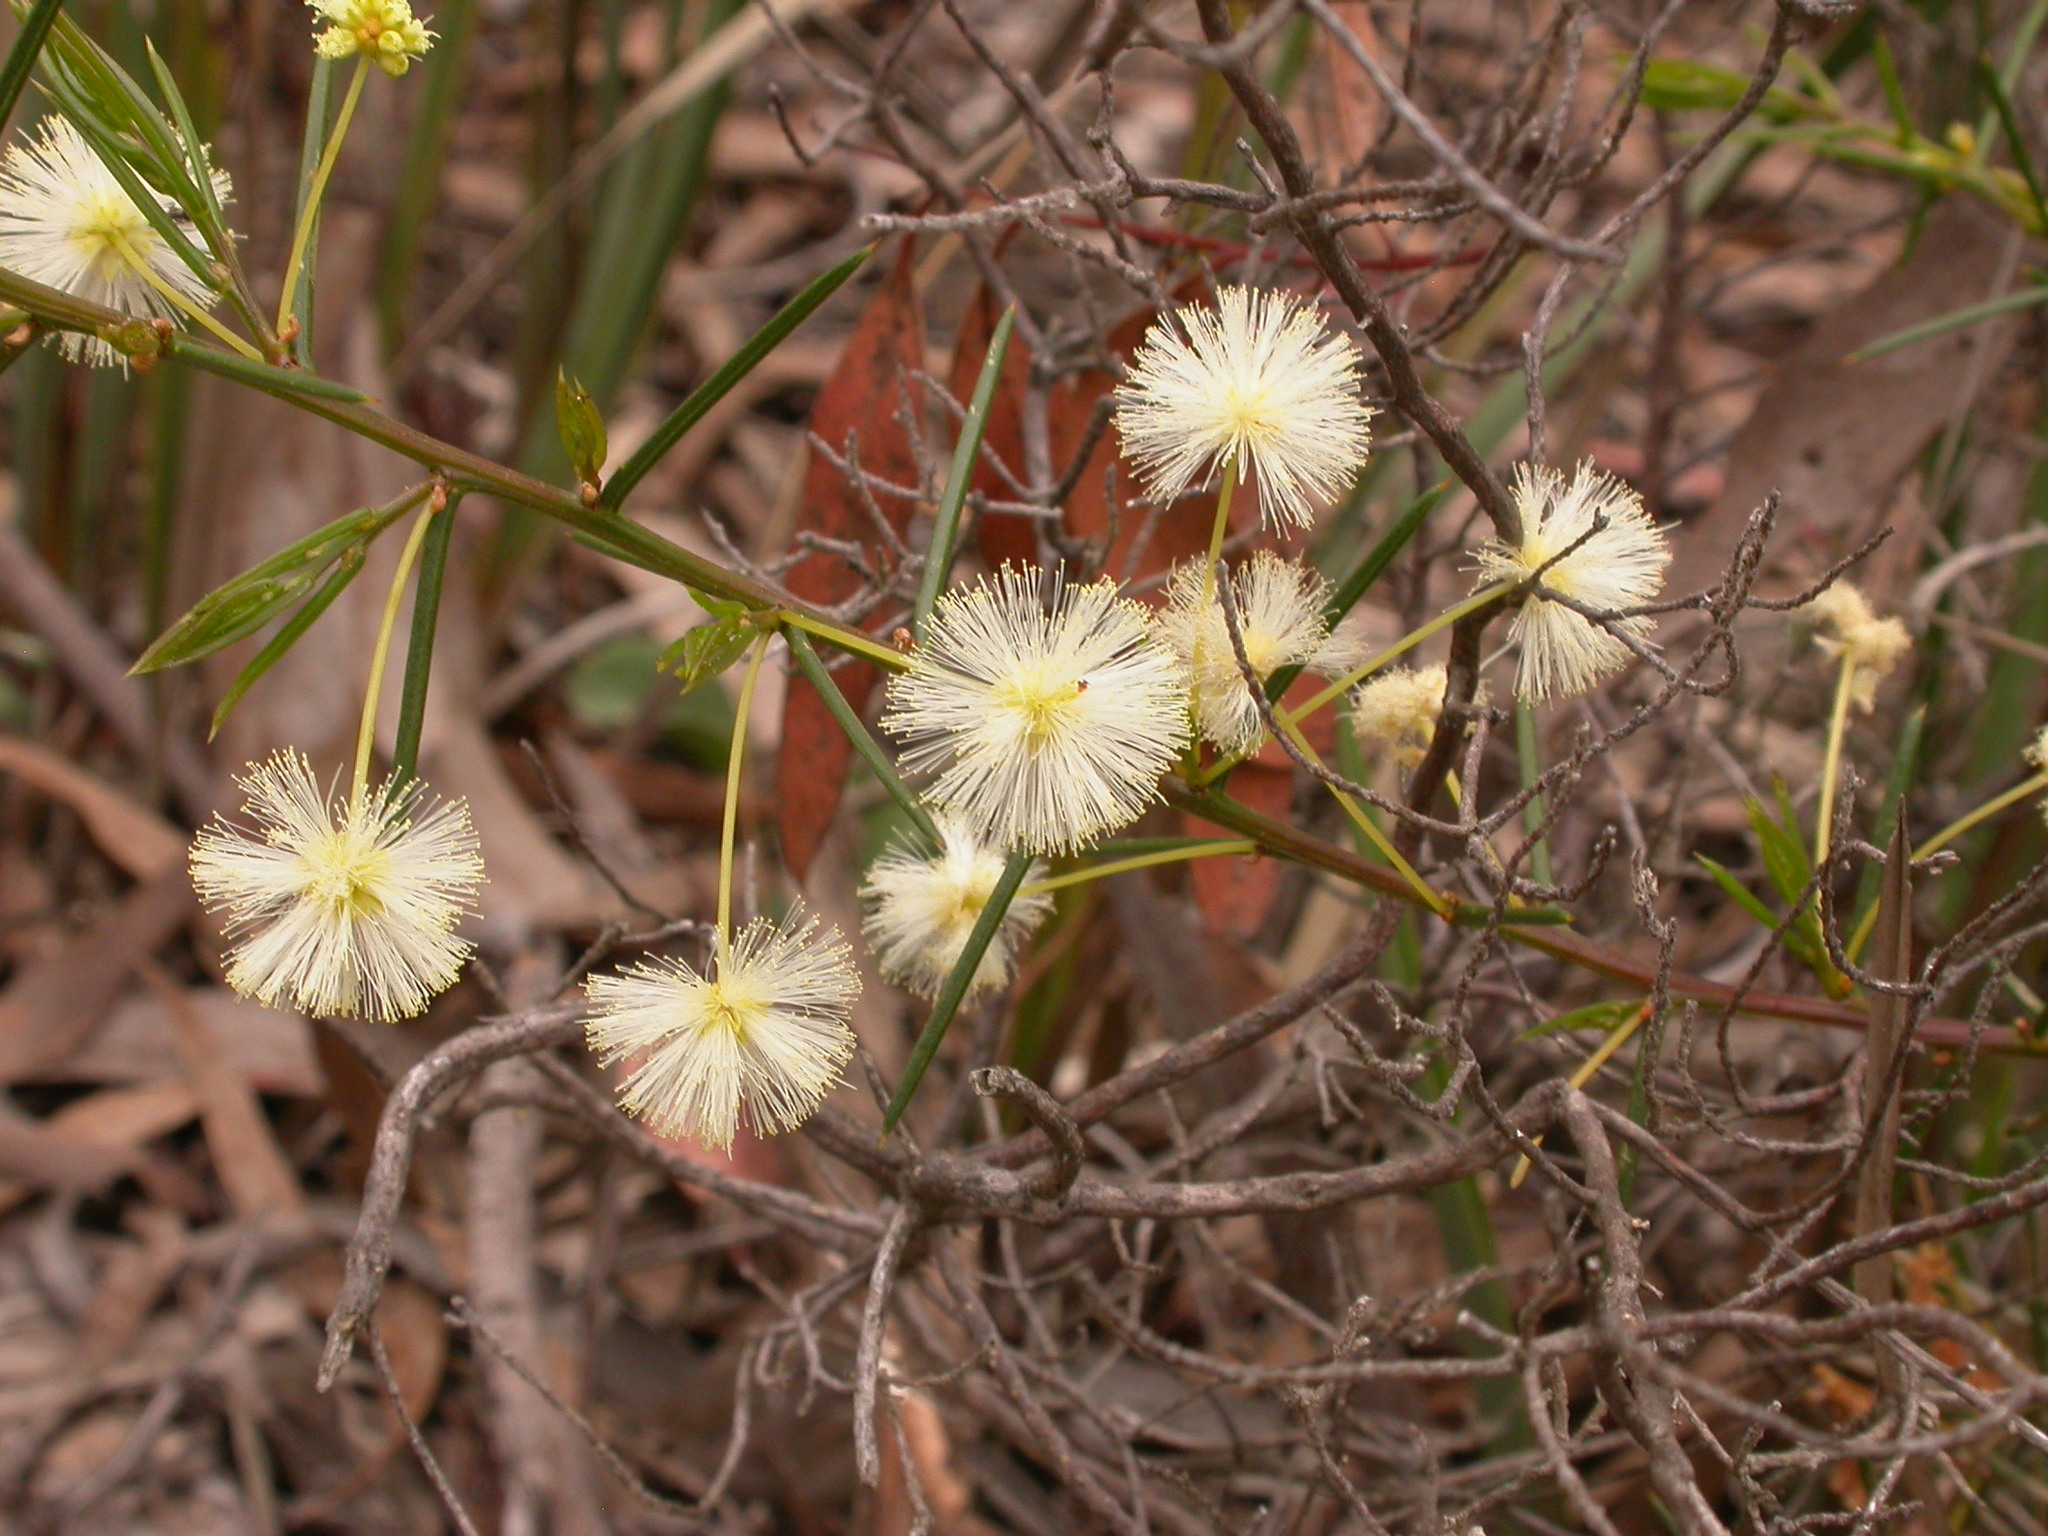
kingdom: Plantae
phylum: Tracheophyta
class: Magnoliopsida
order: Fabales
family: Fabaceae
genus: Acacia
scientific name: Acacia genistifolia
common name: Early wattle
